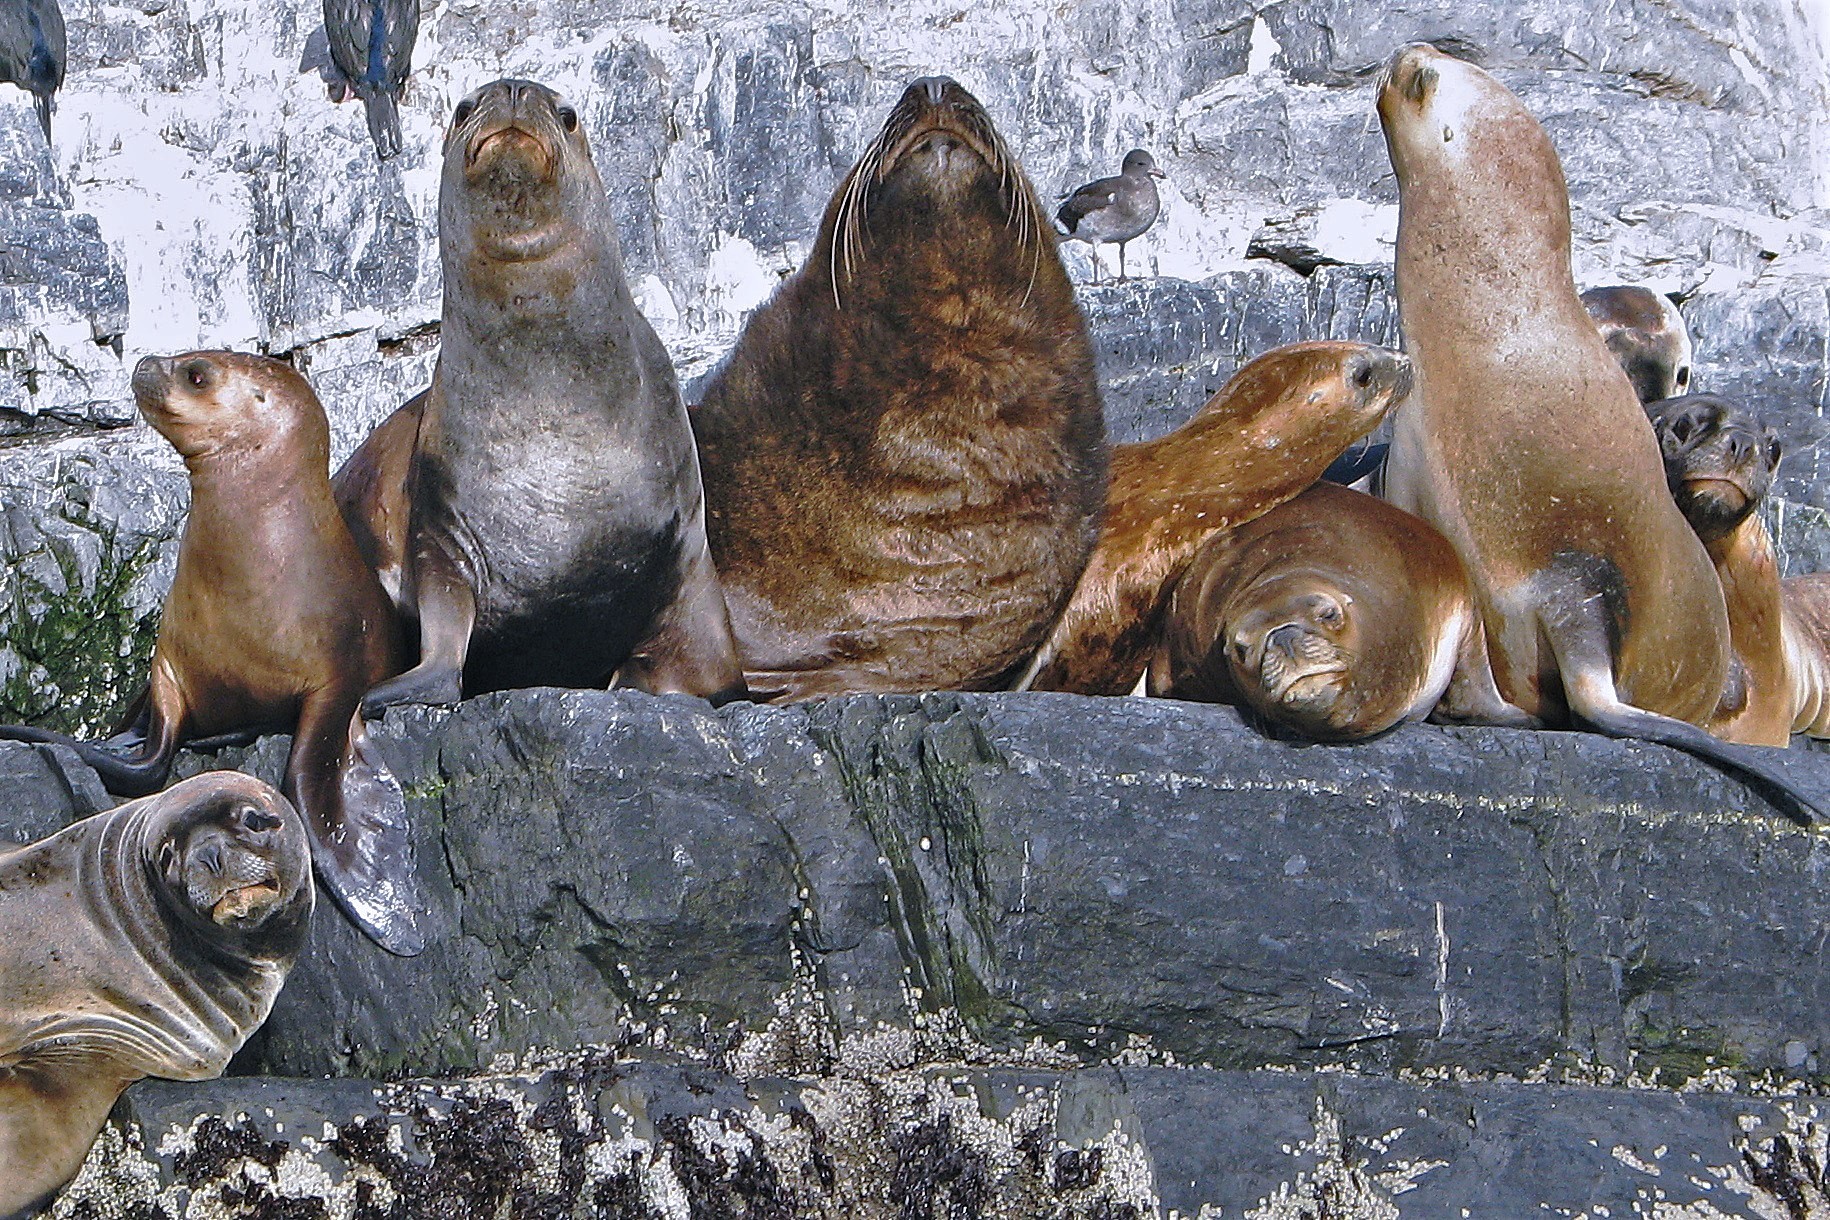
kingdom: Animalia
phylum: Chordata
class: Mammalia
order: Carnivora
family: Otariidae
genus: Otaria
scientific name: Otaria byronia
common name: South american sea lion
